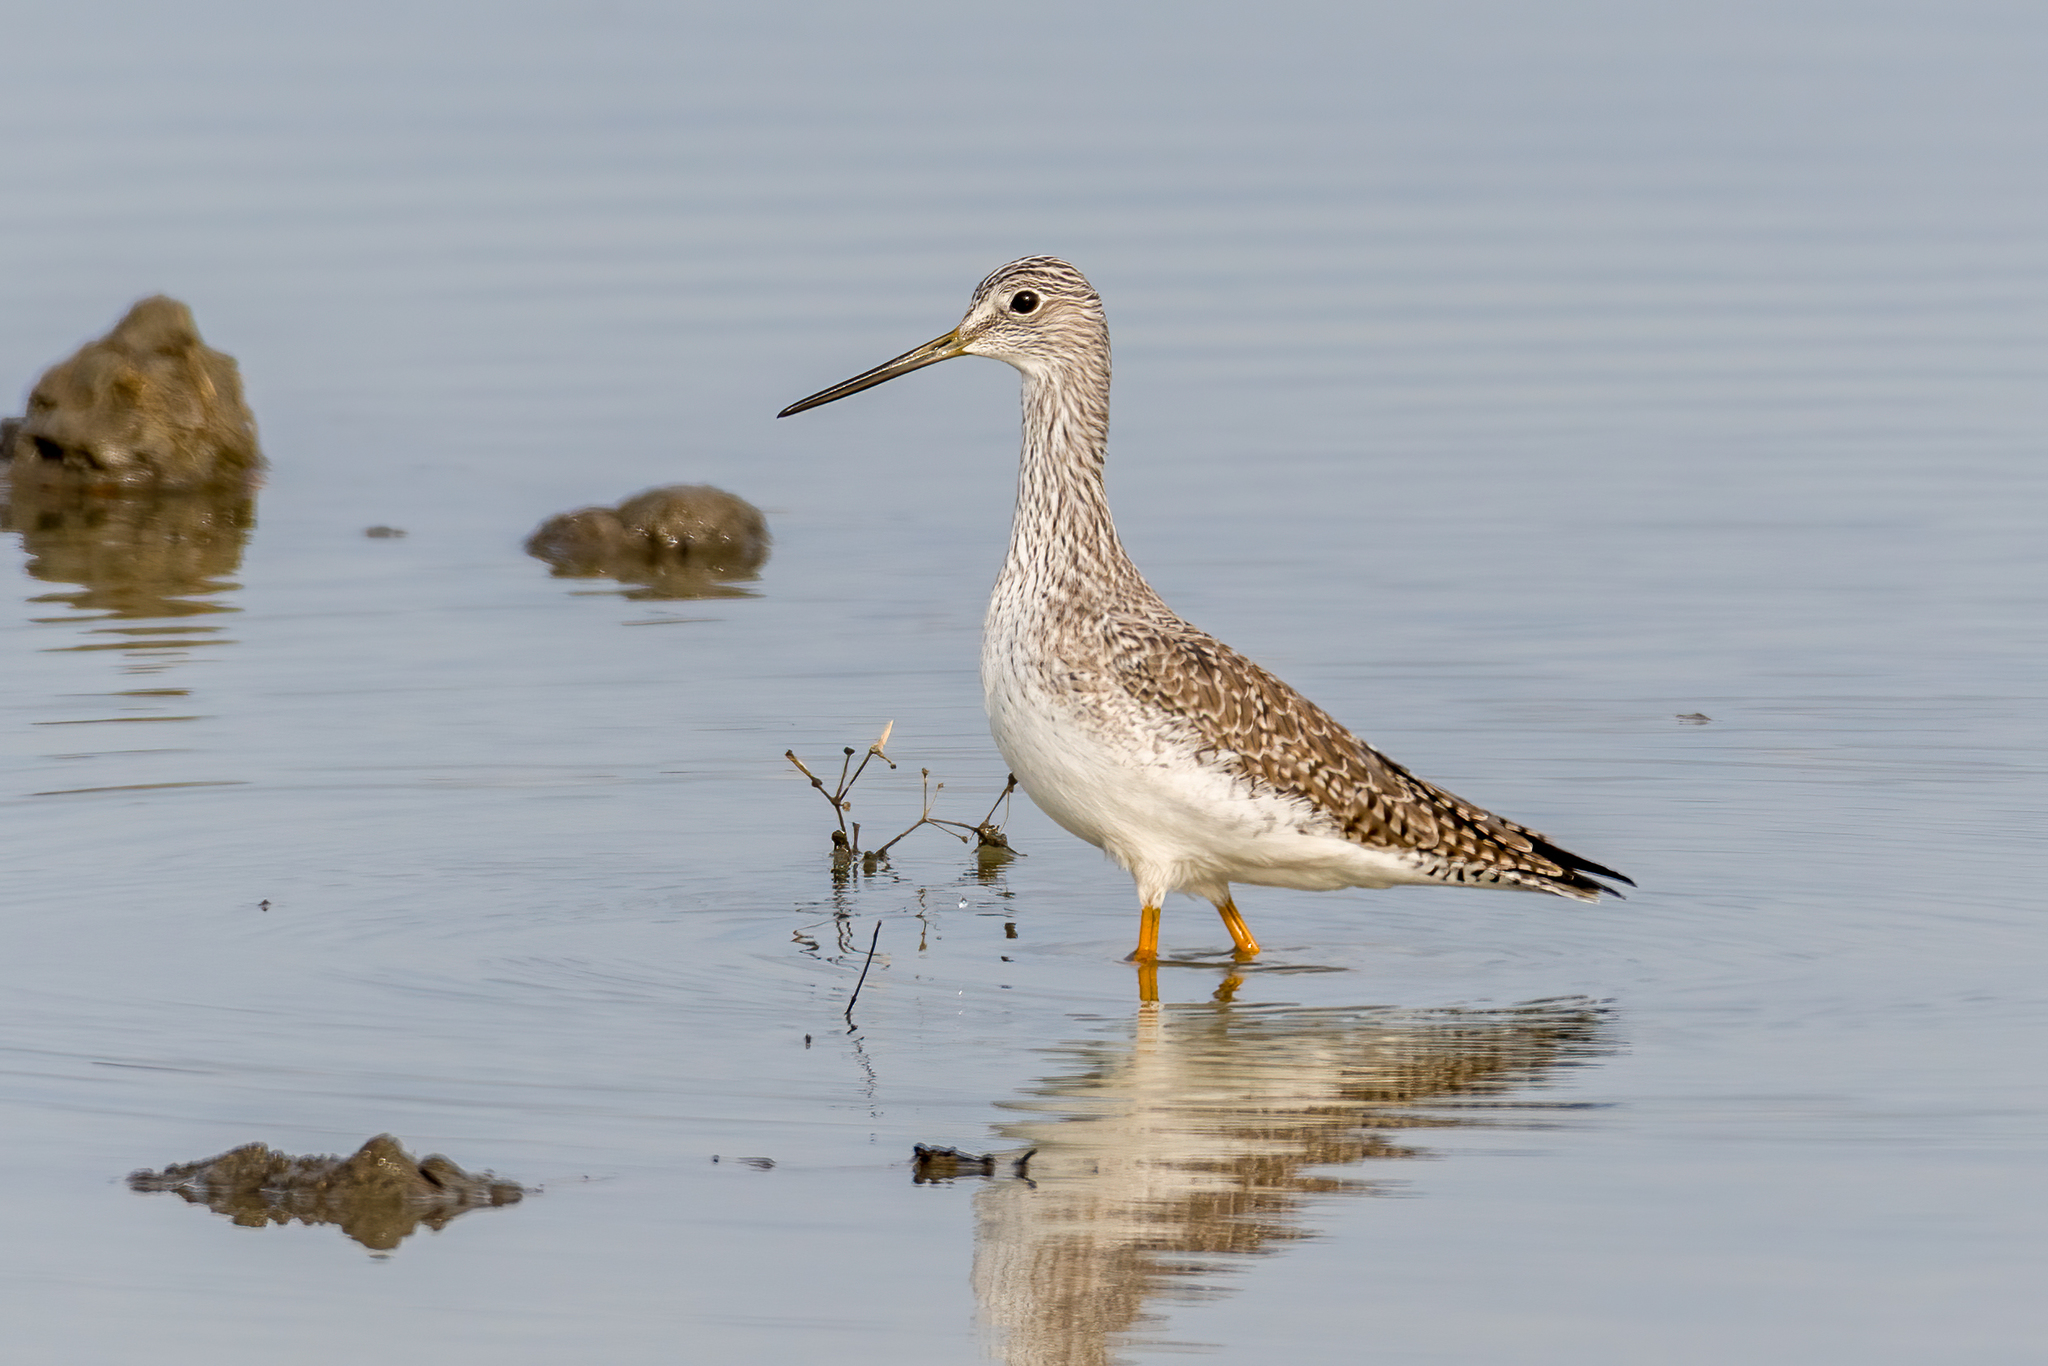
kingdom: Animalia
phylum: Chordata
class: Aves
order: Charadriiformes
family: Scolopacidae
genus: Tringa
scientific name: Tringa melanoleuca
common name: Greater yellowlegs
